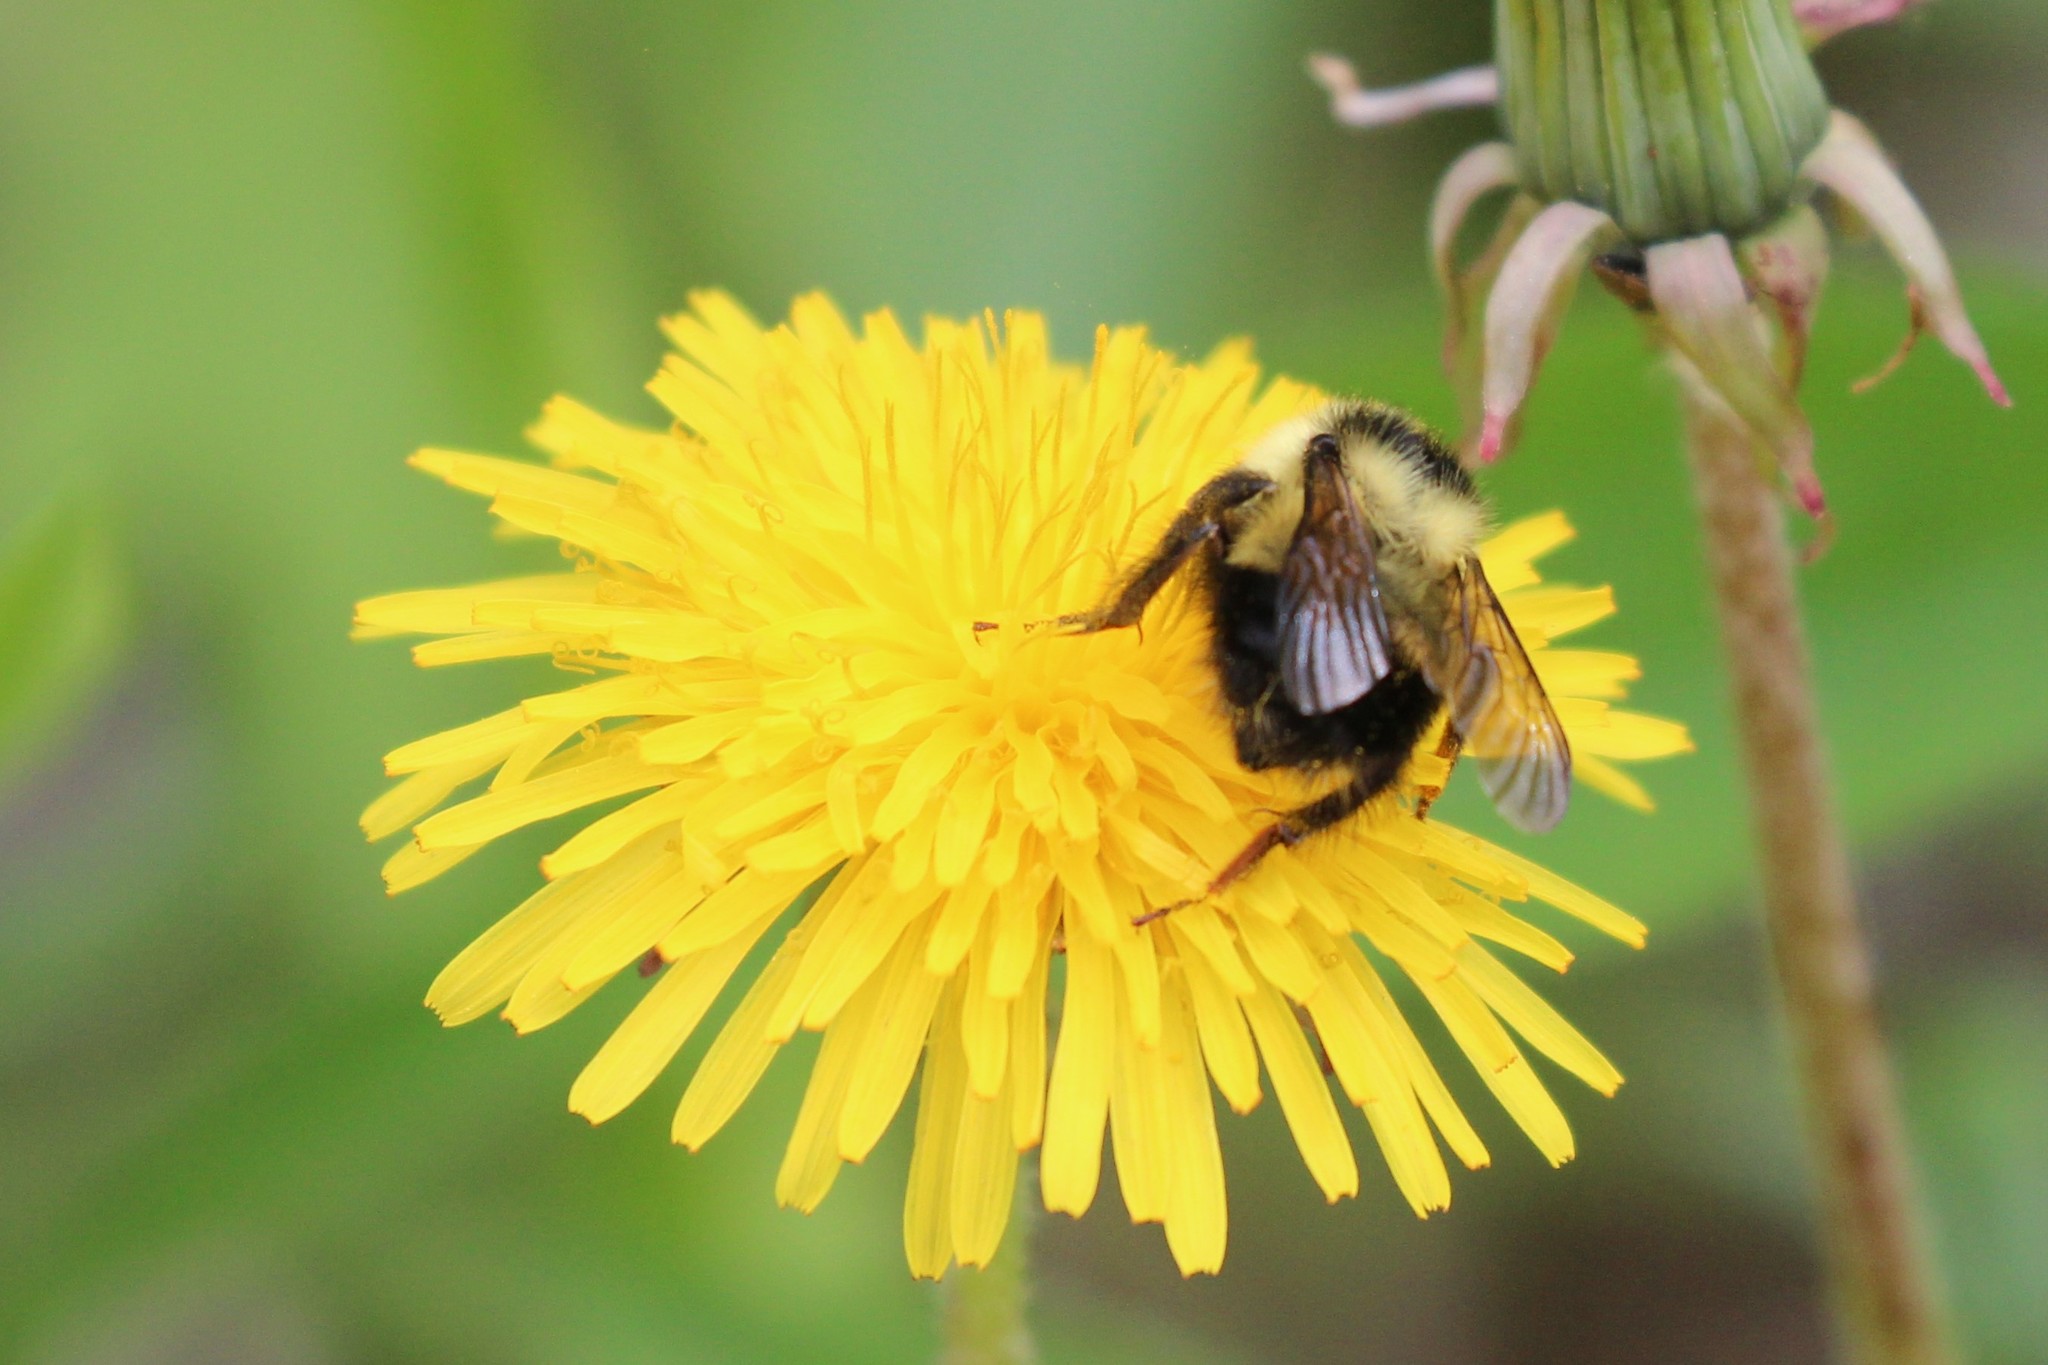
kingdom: Animalia
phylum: Arthropoda
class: Insecta
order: Hymenoptera
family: Apidae
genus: Bombus
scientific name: Bombus sandersoni
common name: Sanderson bumble bee
